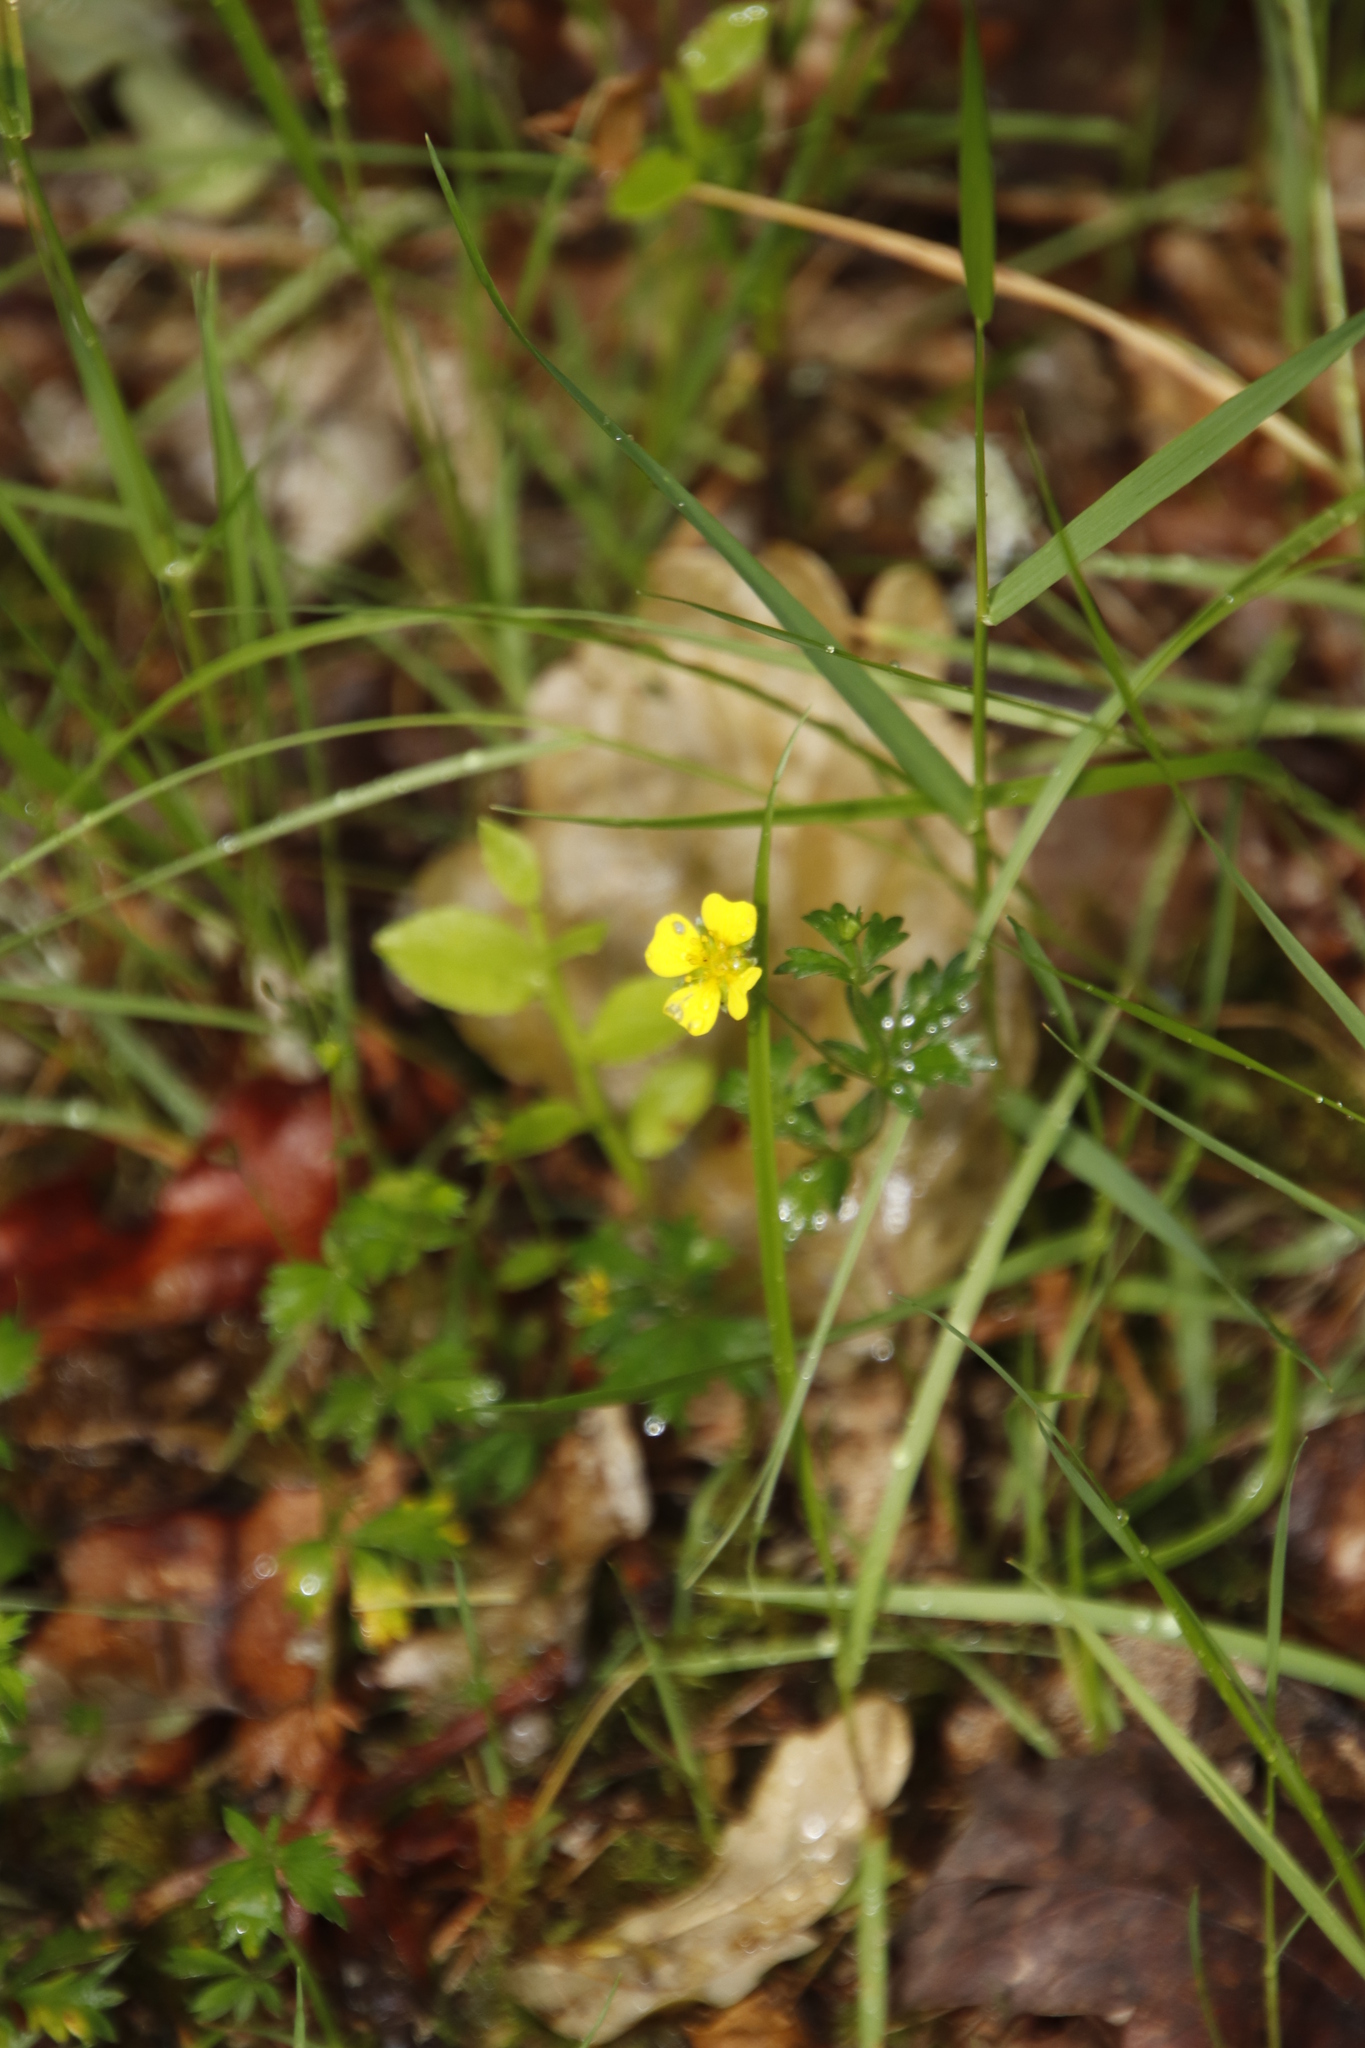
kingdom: Plantae
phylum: Tracheophyta
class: Magnoliopsida
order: Rosales
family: Rosaceae
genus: Potentilla
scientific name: Potentilla erecta
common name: Tormentil
